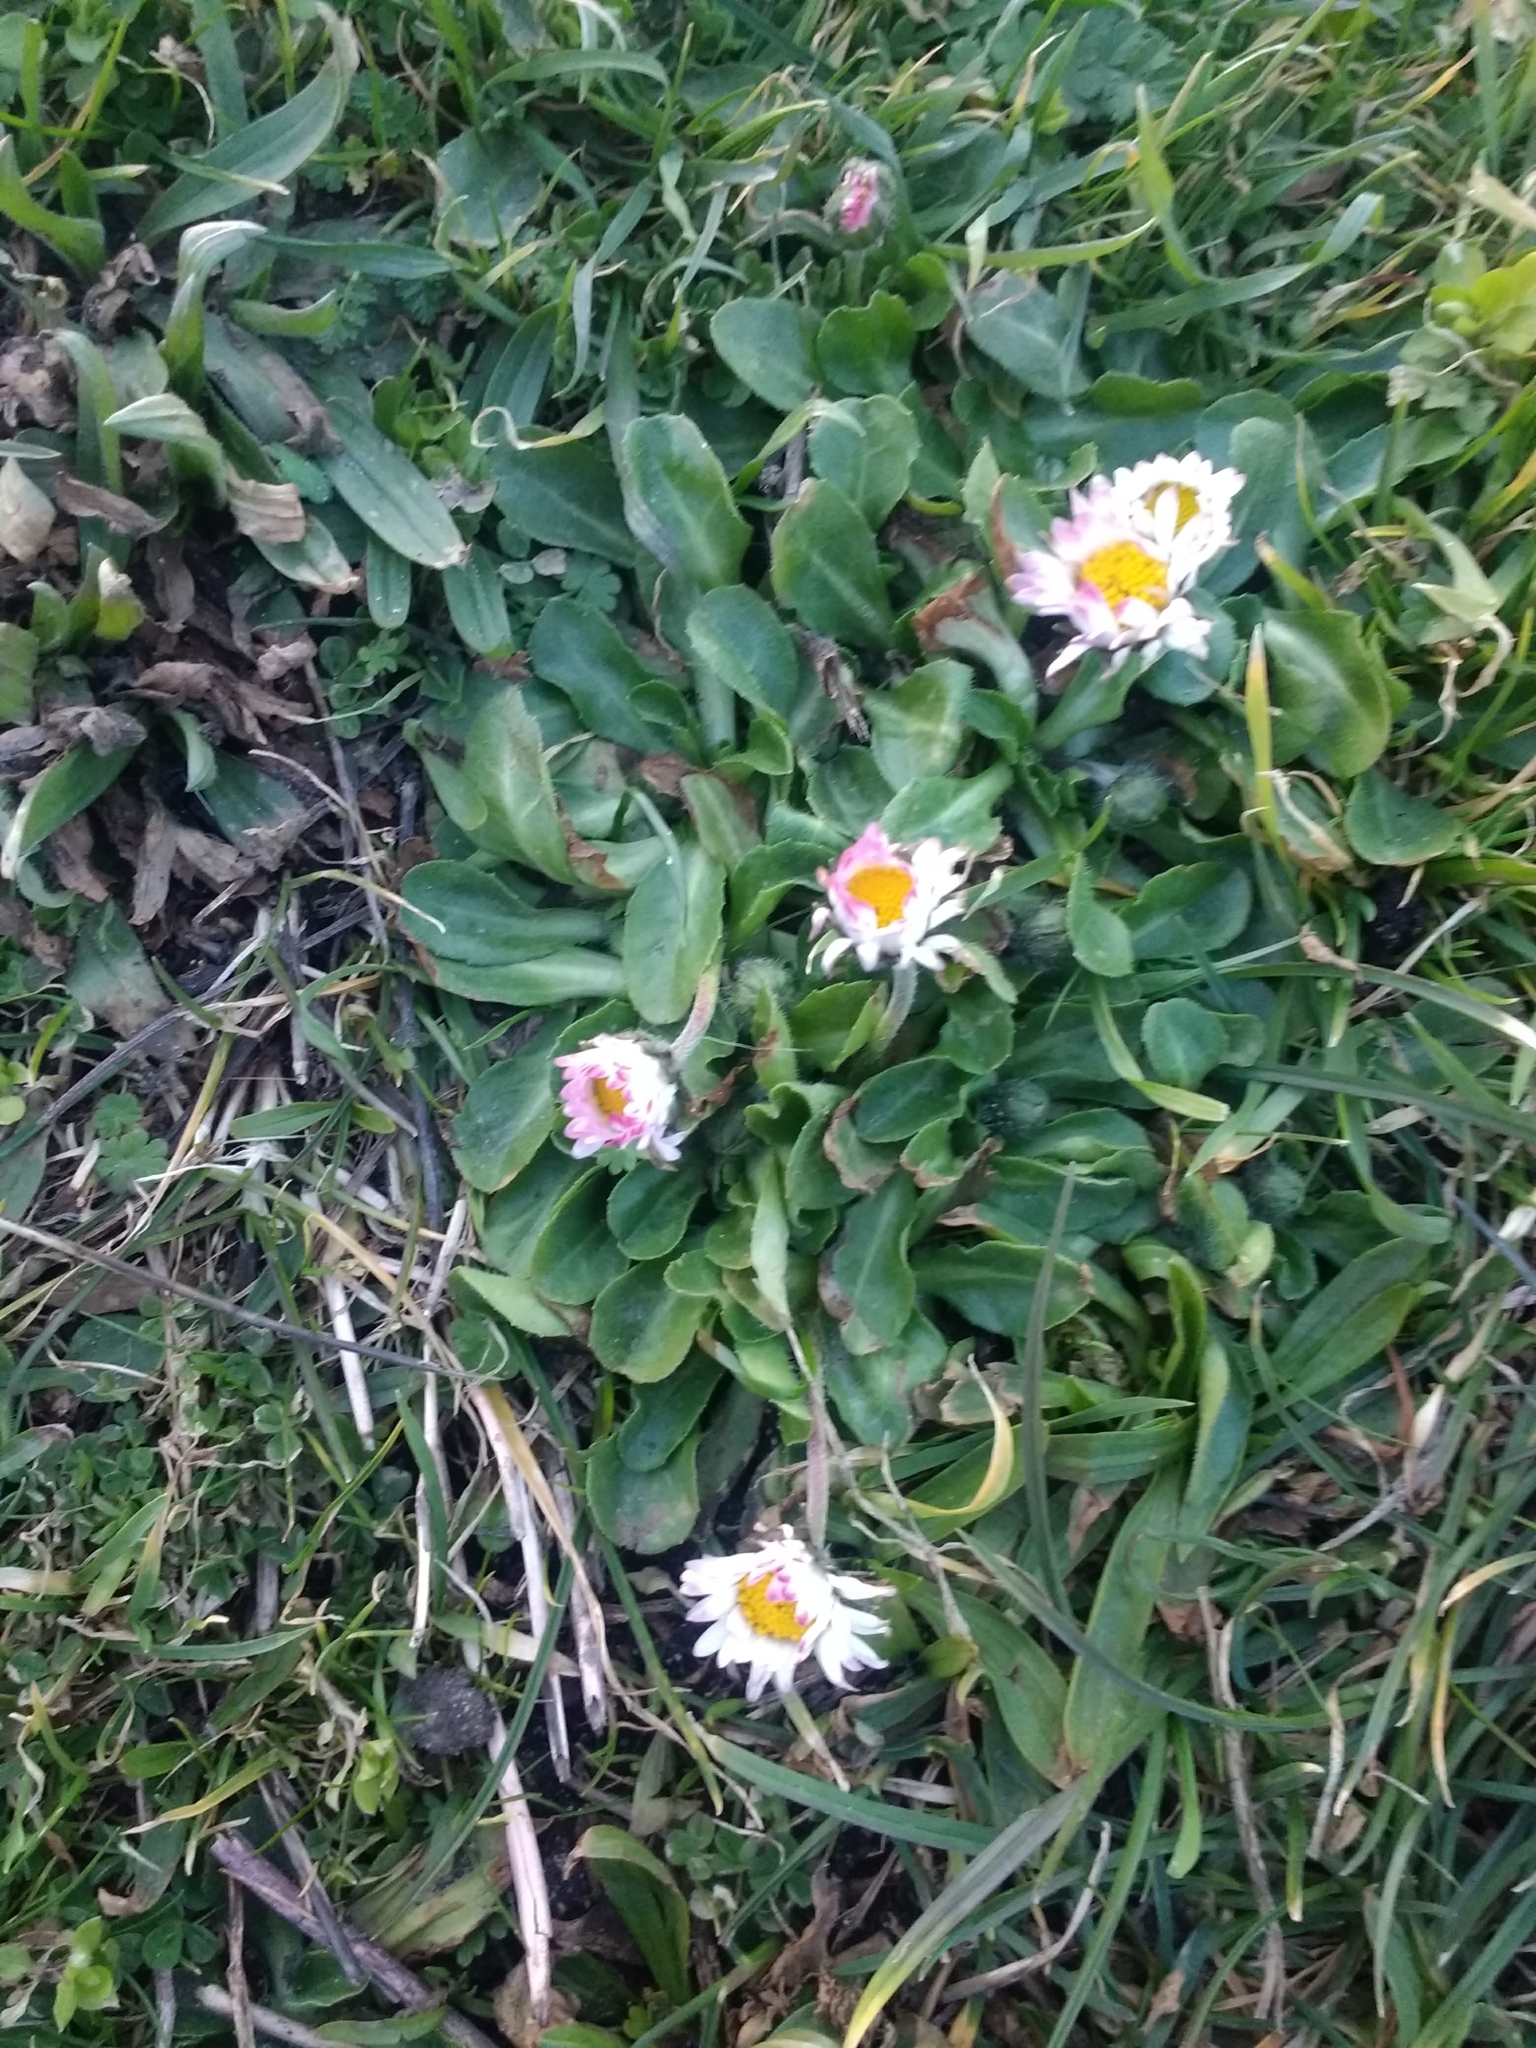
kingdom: Plantae
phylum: Tracheophyta
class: Magnoliopsida
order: Asterales
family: Asteraceae
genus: Bellis
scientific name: Bellis perennis
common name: Lawndaisy
